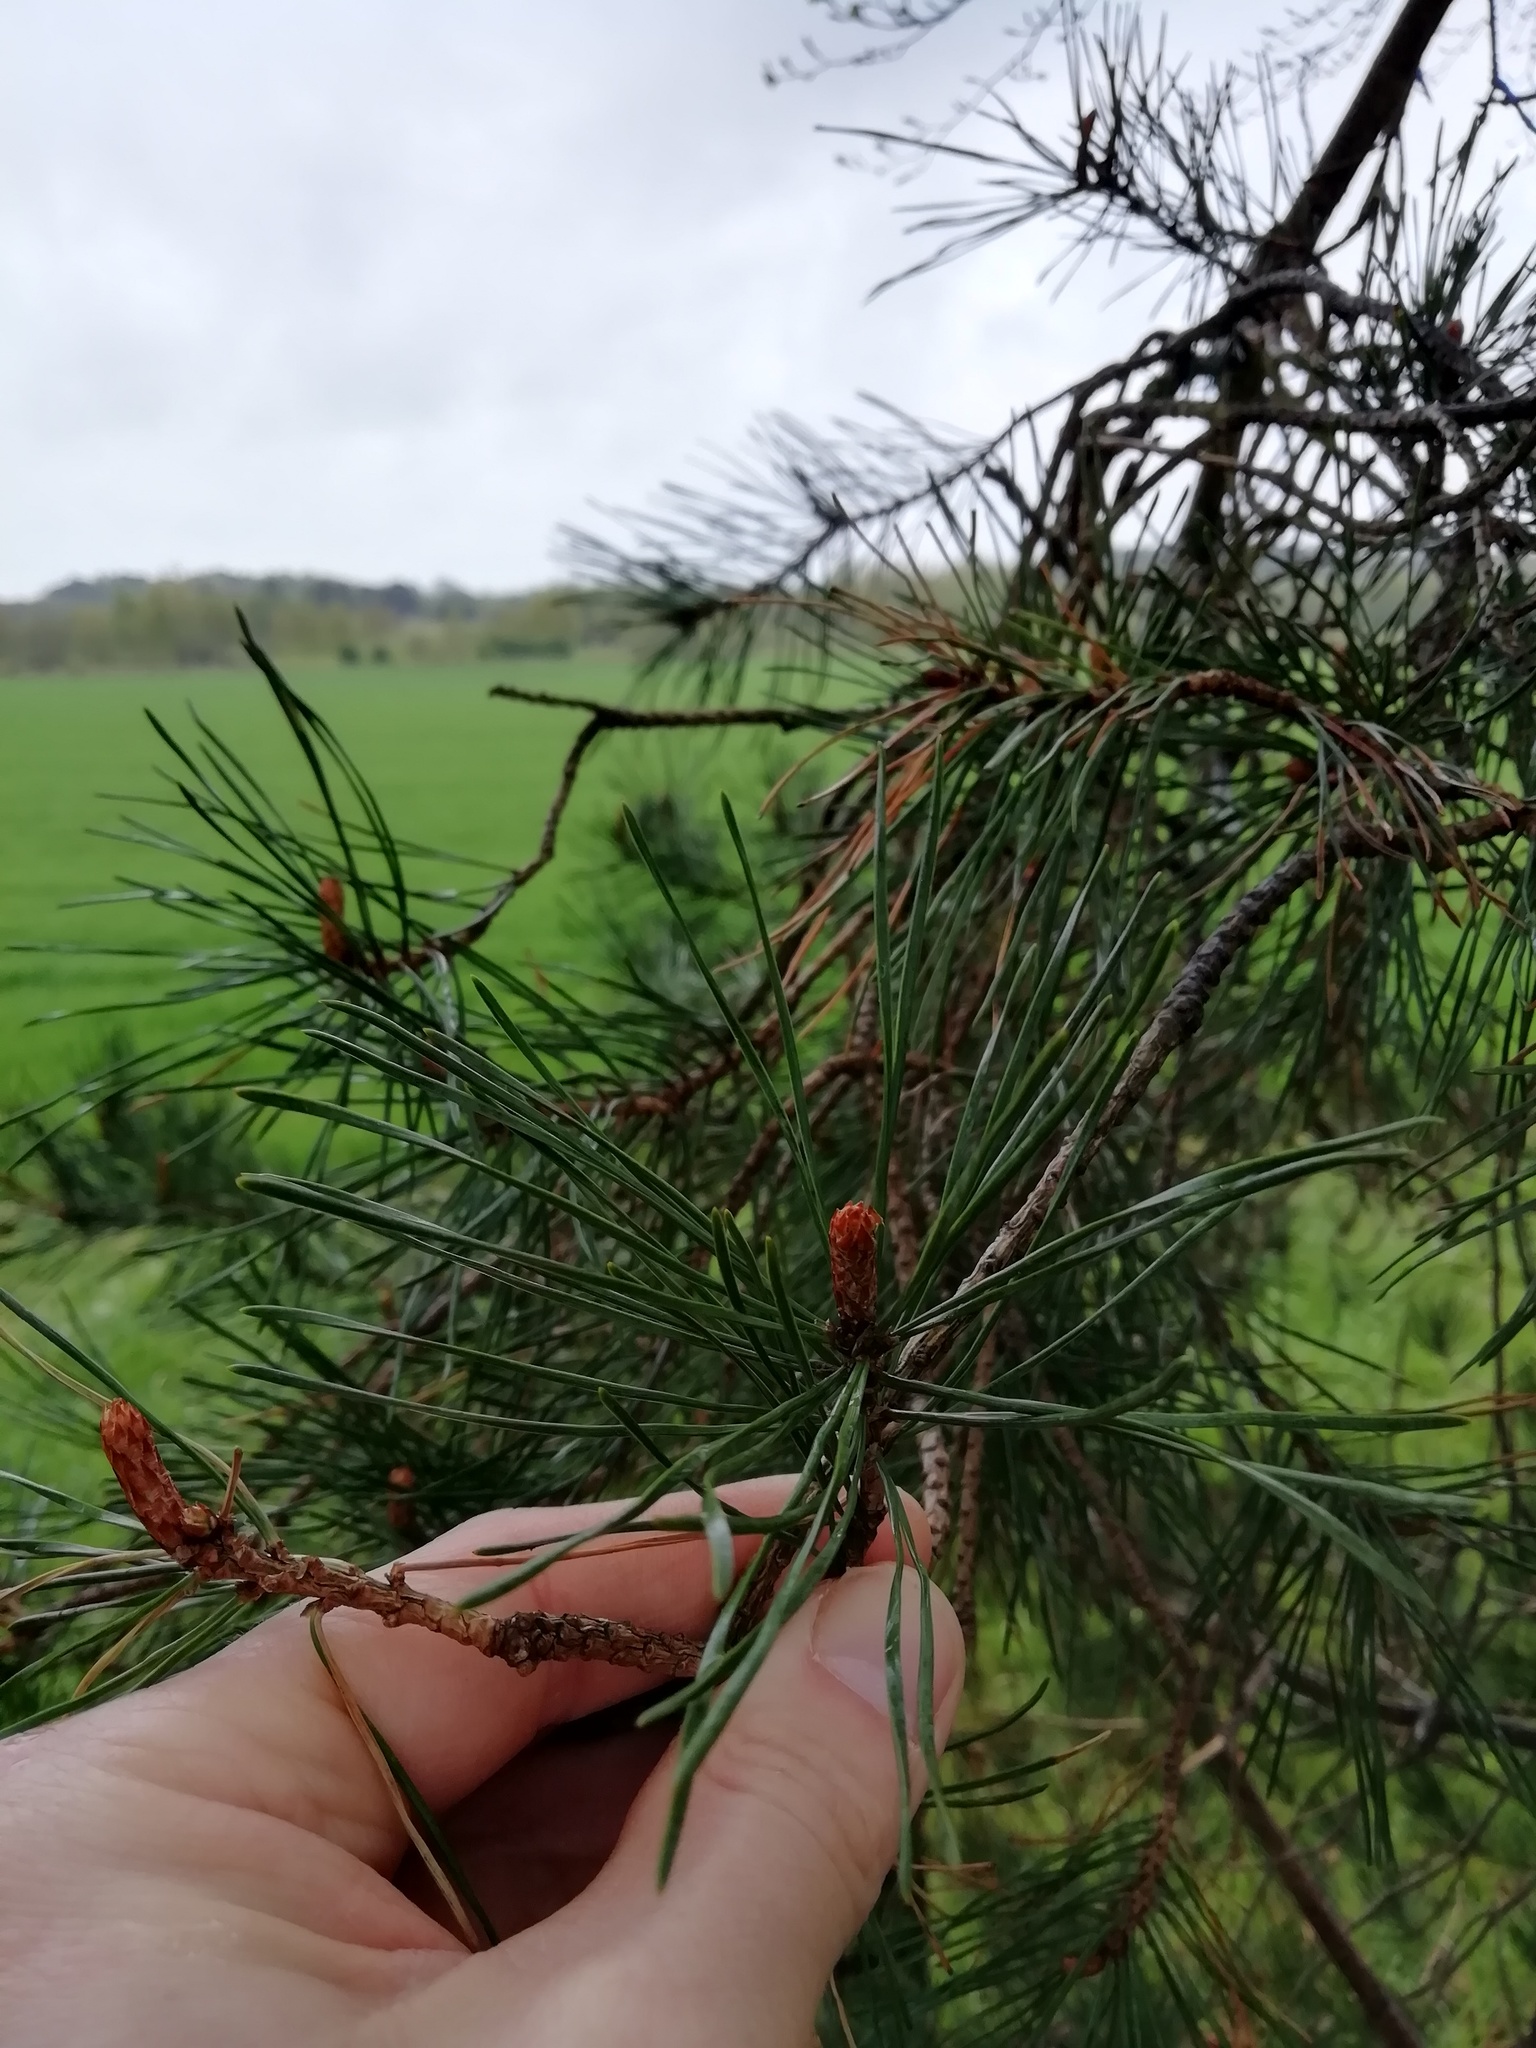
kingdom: Plantae
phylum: Tracheophyta
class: Pinopsida
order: Pinales
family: Pinaceae
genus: Pinus
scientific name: Pinus sylvestris
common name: Scots pine
